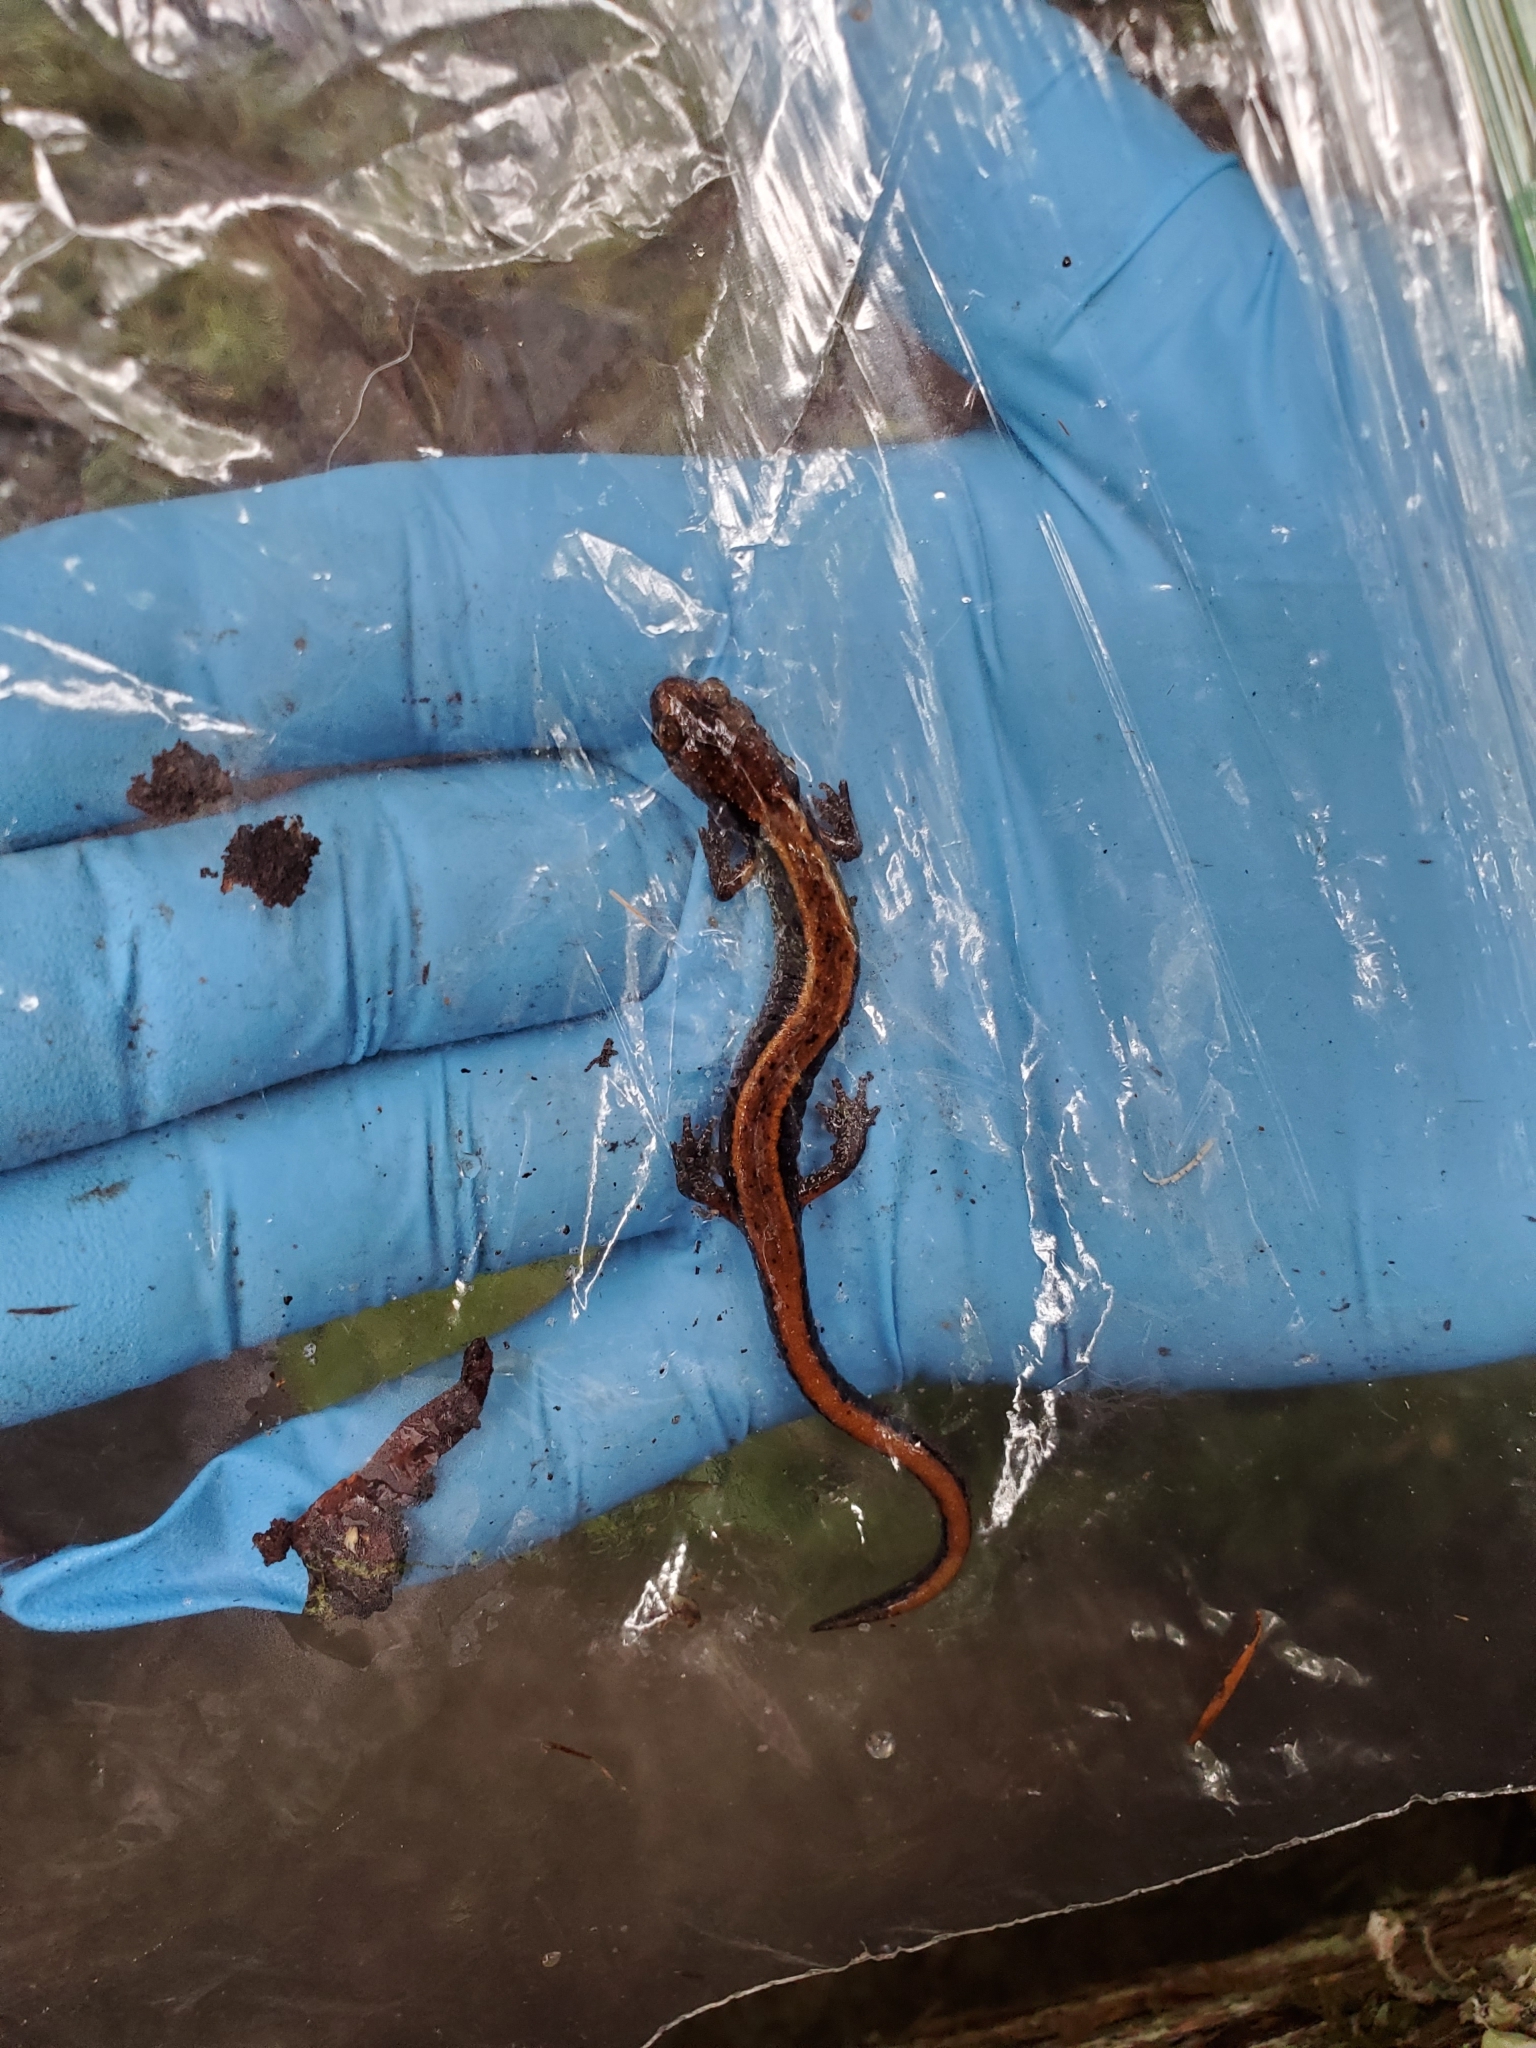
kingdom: Animalia
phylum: Chordata
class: Amphibia
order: Caudata
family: Plethodontidae
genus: Plethodon
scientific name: Plethodon vehiculum
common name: Western red-backed salamander
